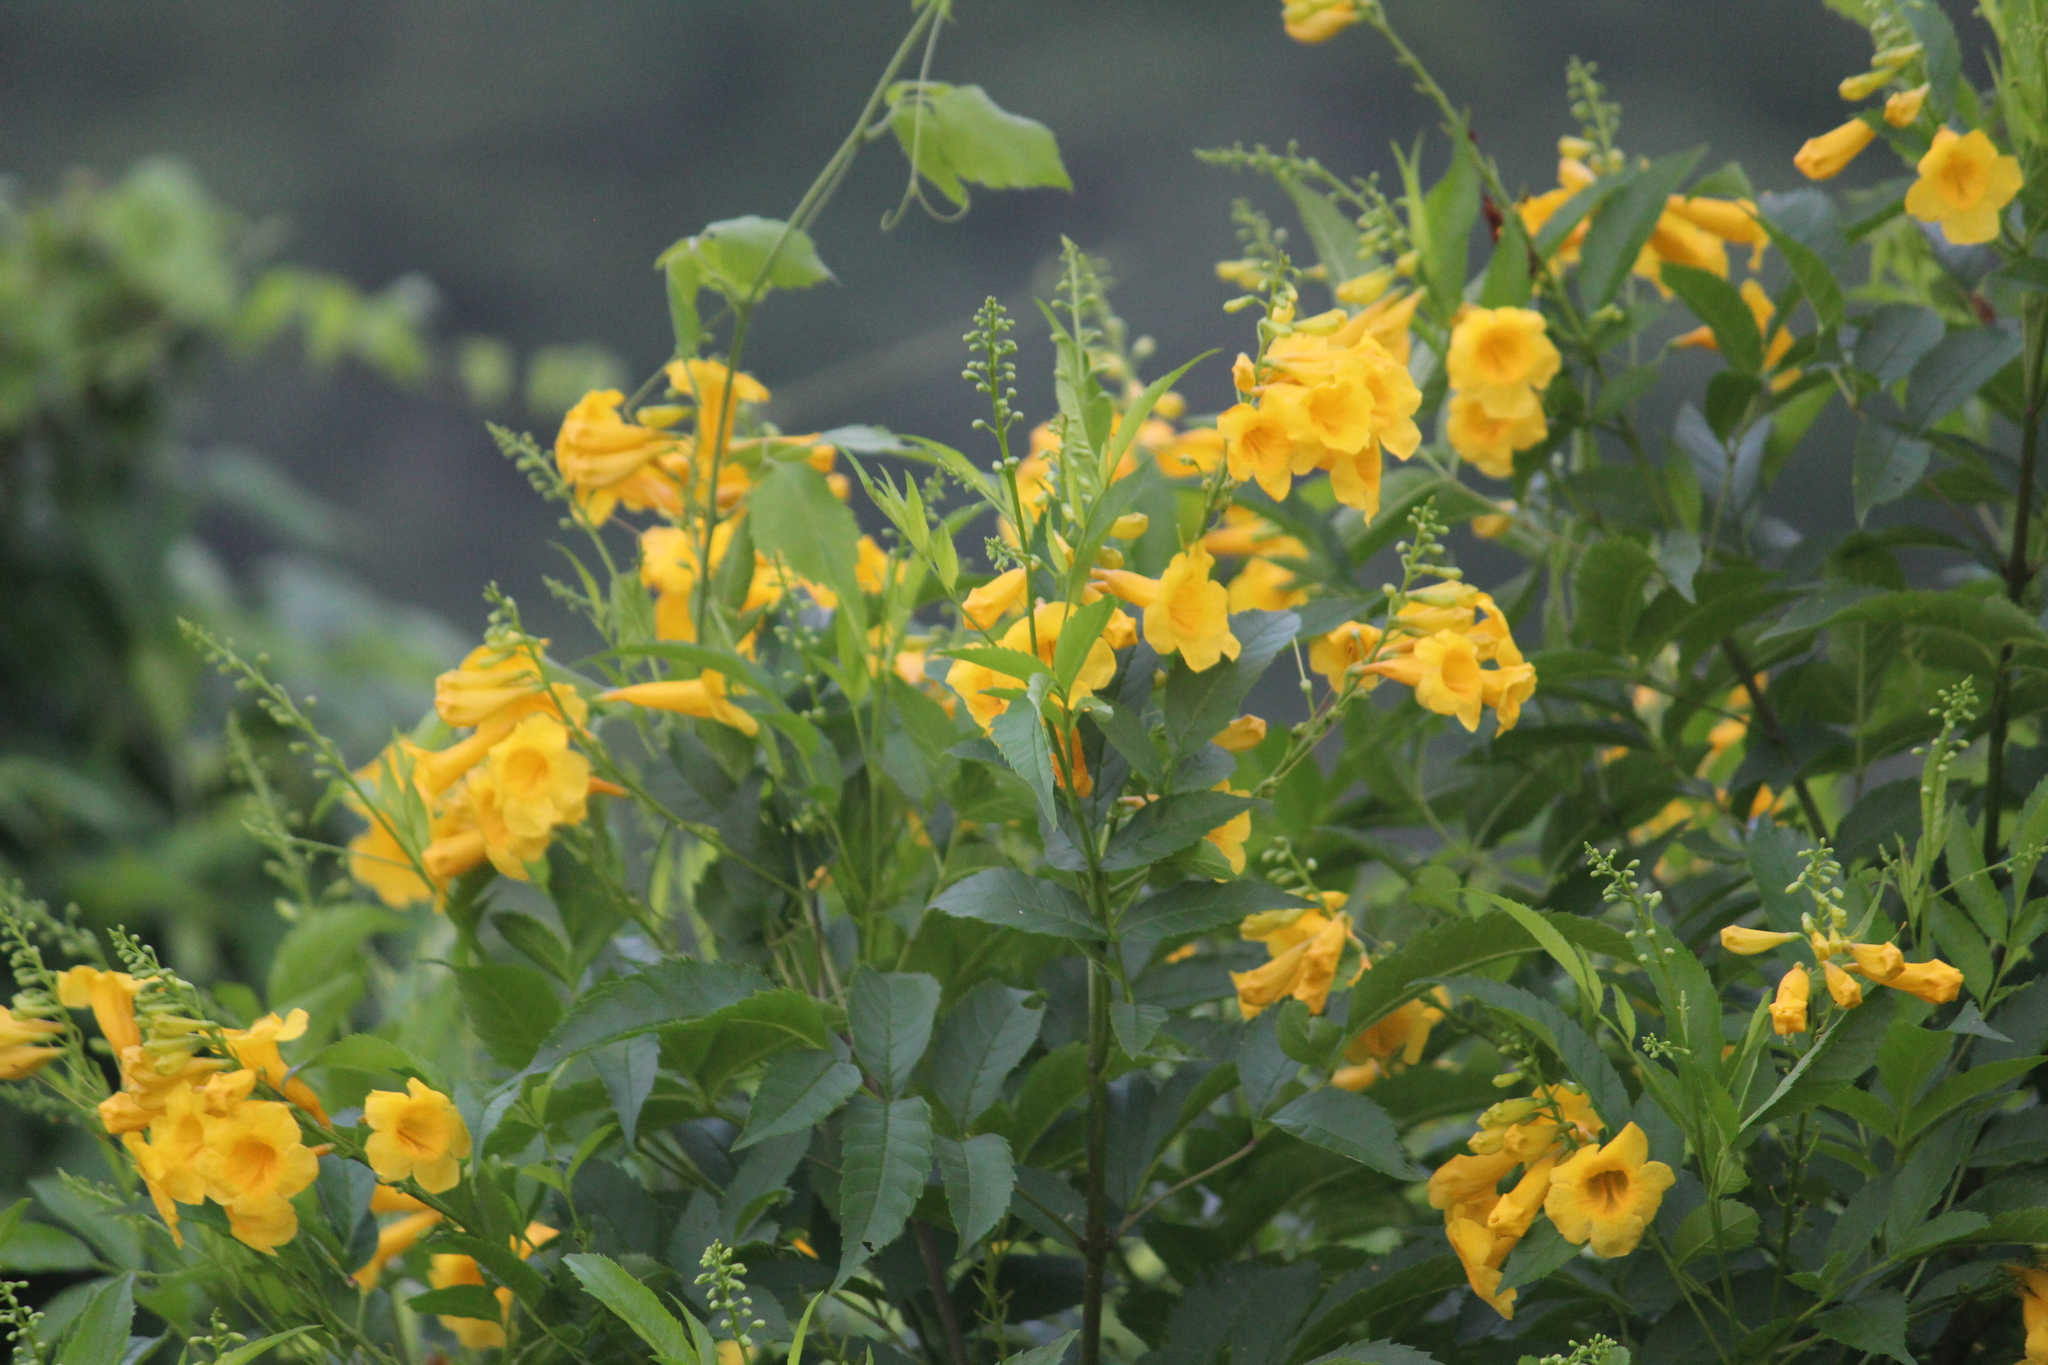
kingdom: Plantae
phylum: Tracheophyta
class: Magnoliopsida
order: Lamiales
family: Bignoniaceae
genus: Tecoma
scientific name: Tecoma stans
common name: Yellow trumpetbush
